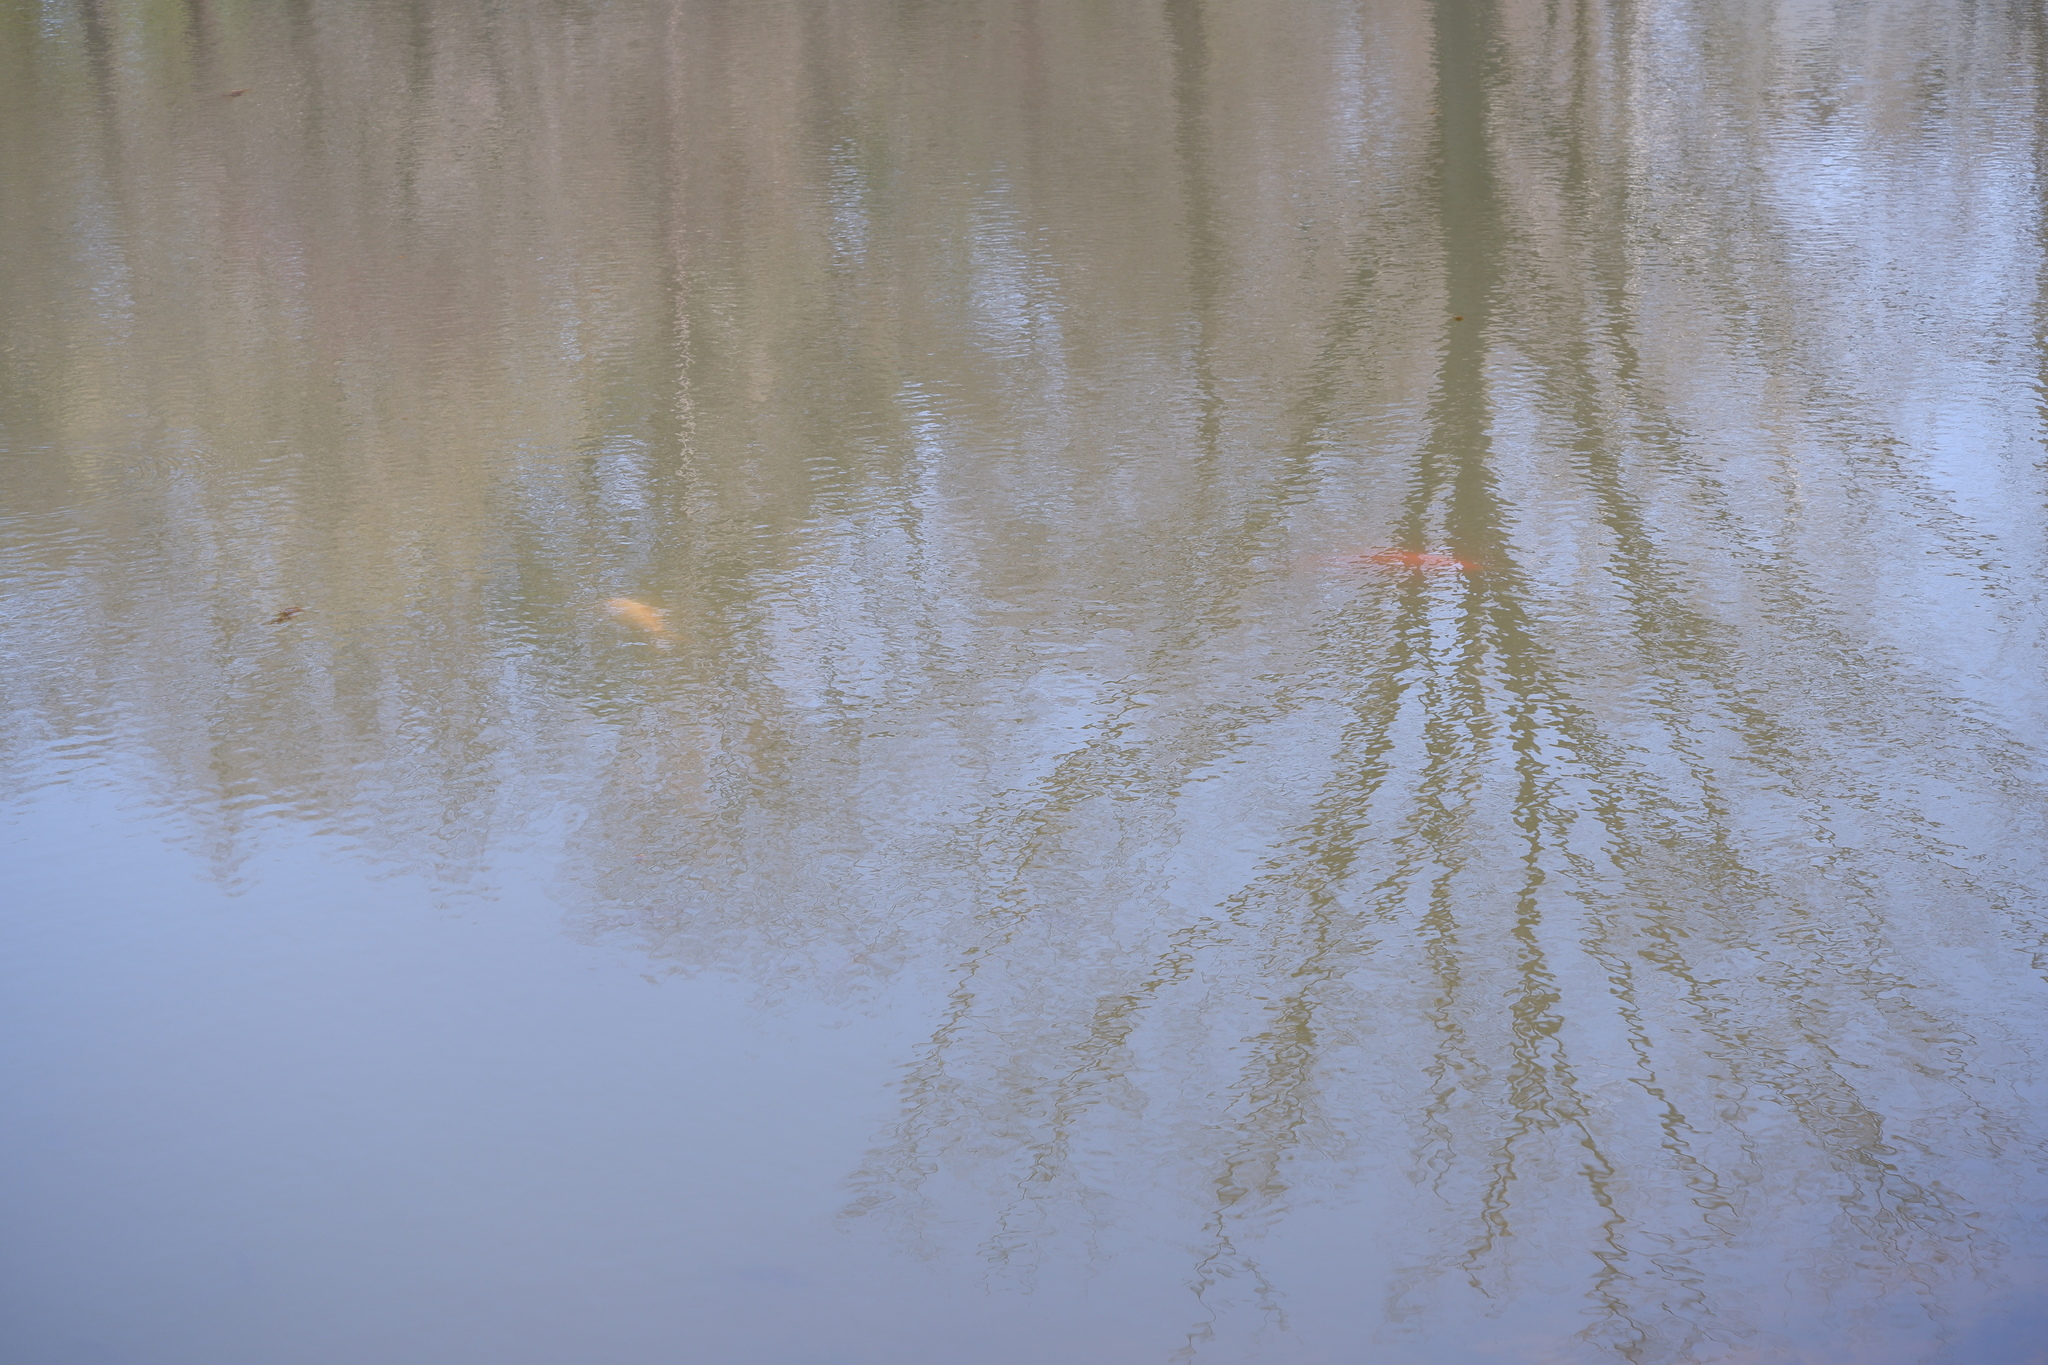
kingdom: Animalia
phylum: Chordata
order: Cypriniformes
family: Cyprinidae
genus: Cyprinus
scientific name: Cyprinus rubrofuscus
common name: Koi
